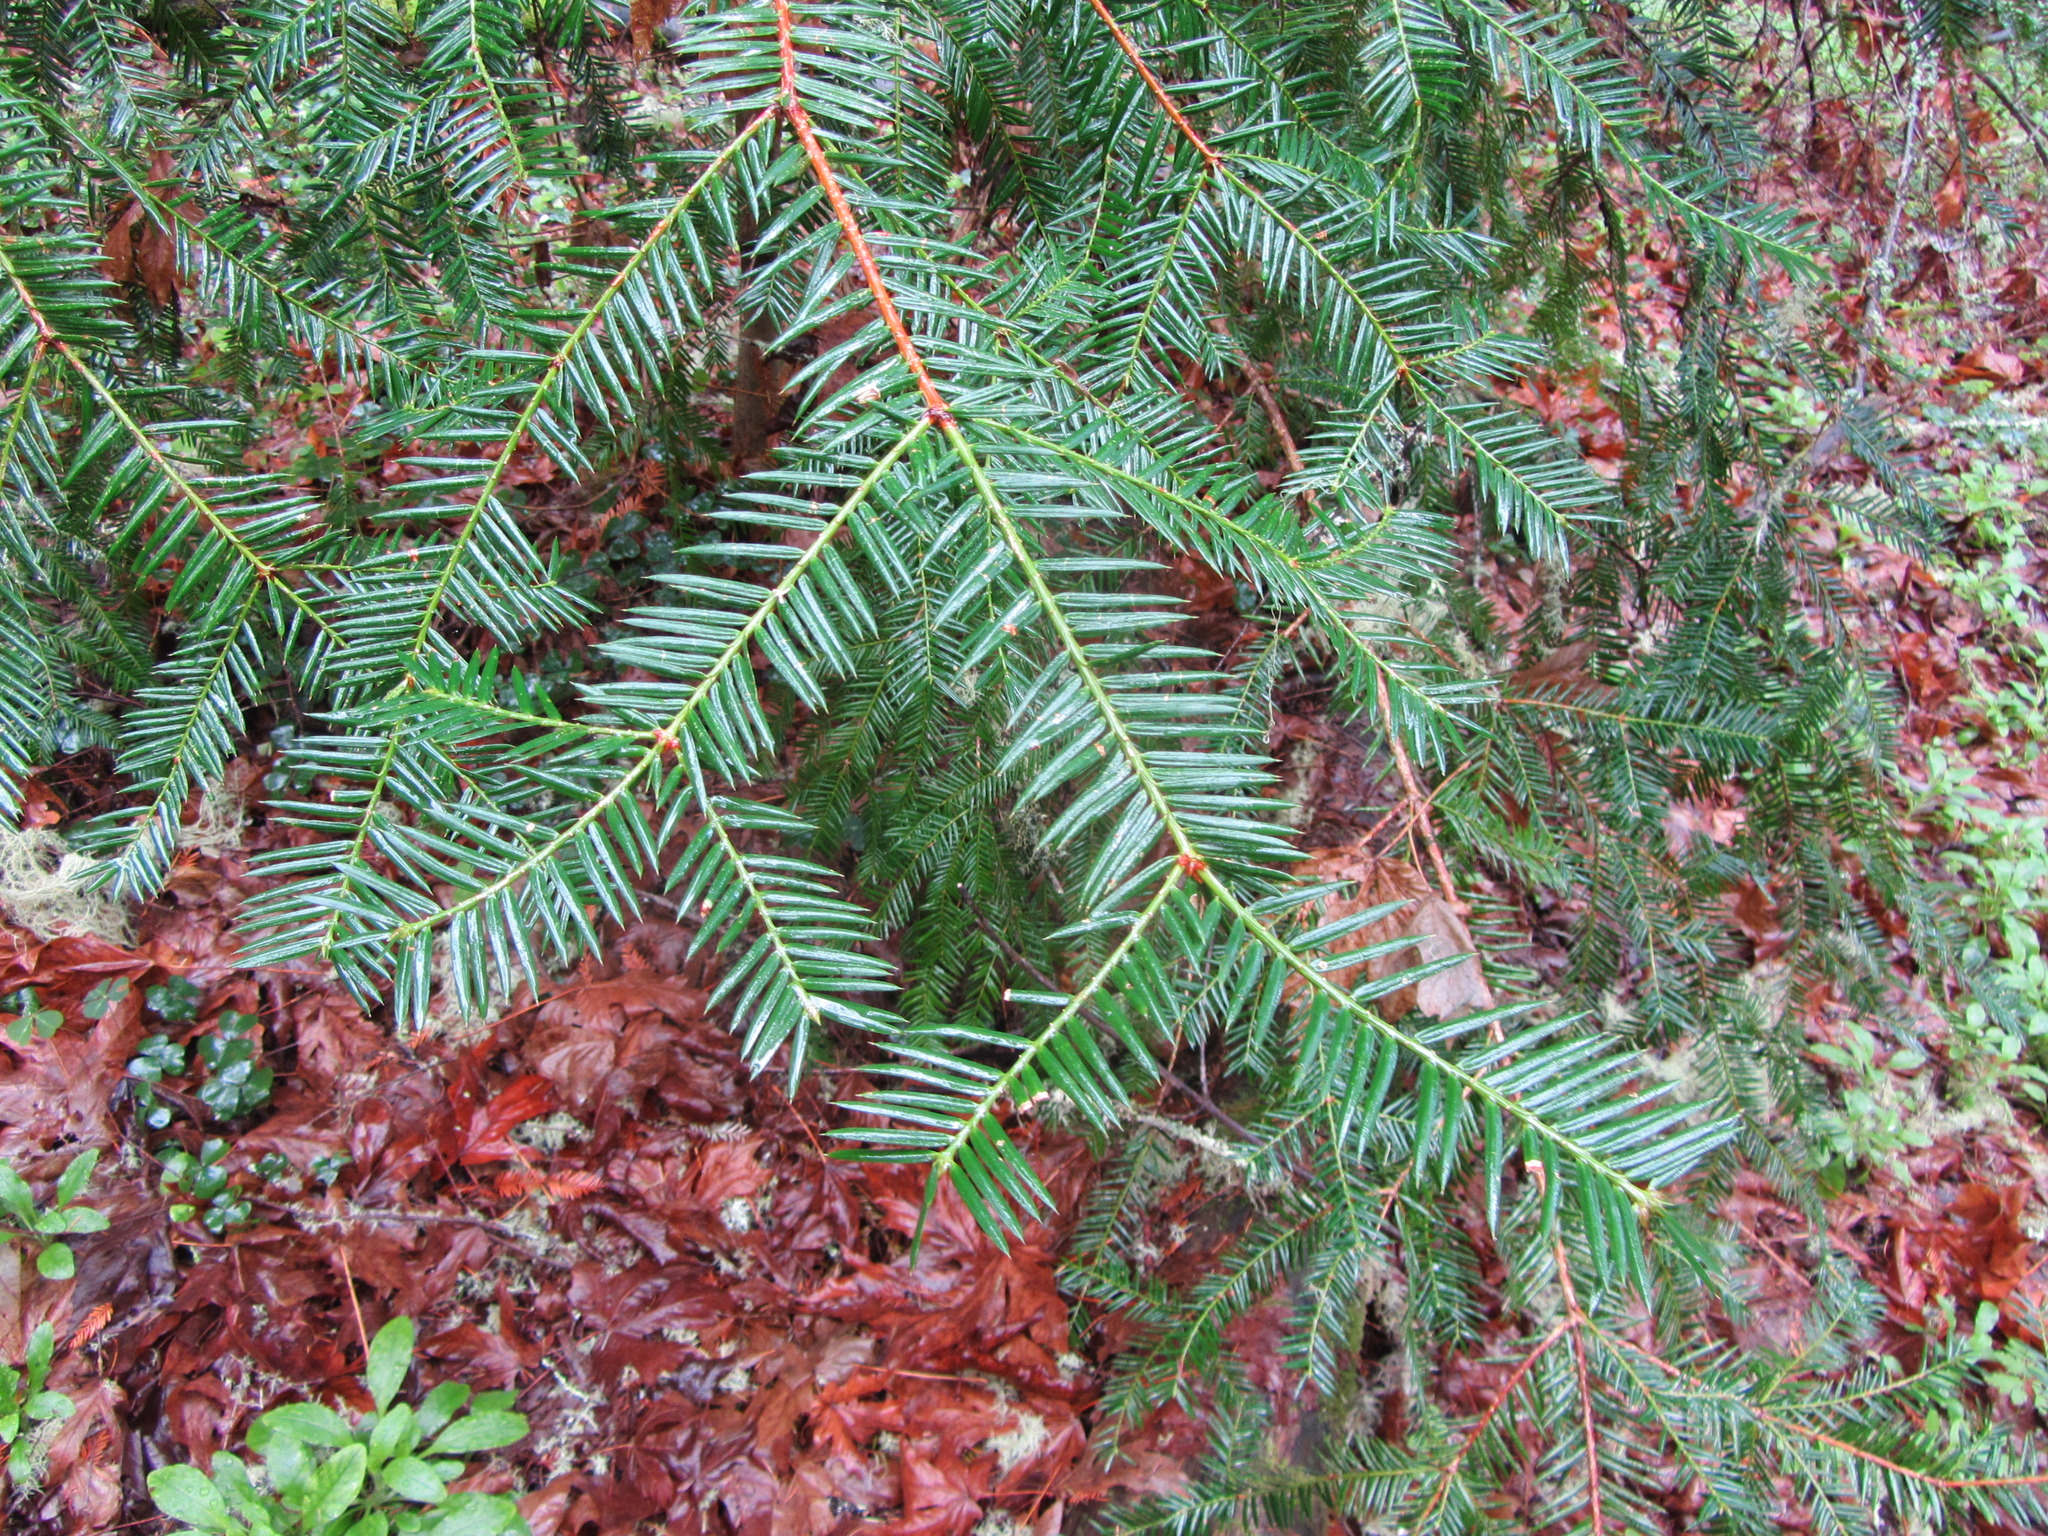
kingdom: Plantae
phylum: Tracheophyta
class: Pinopsida
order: Pinales
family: Taxaceae
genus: Torreya
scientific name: Torreya californica
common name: California torreya
